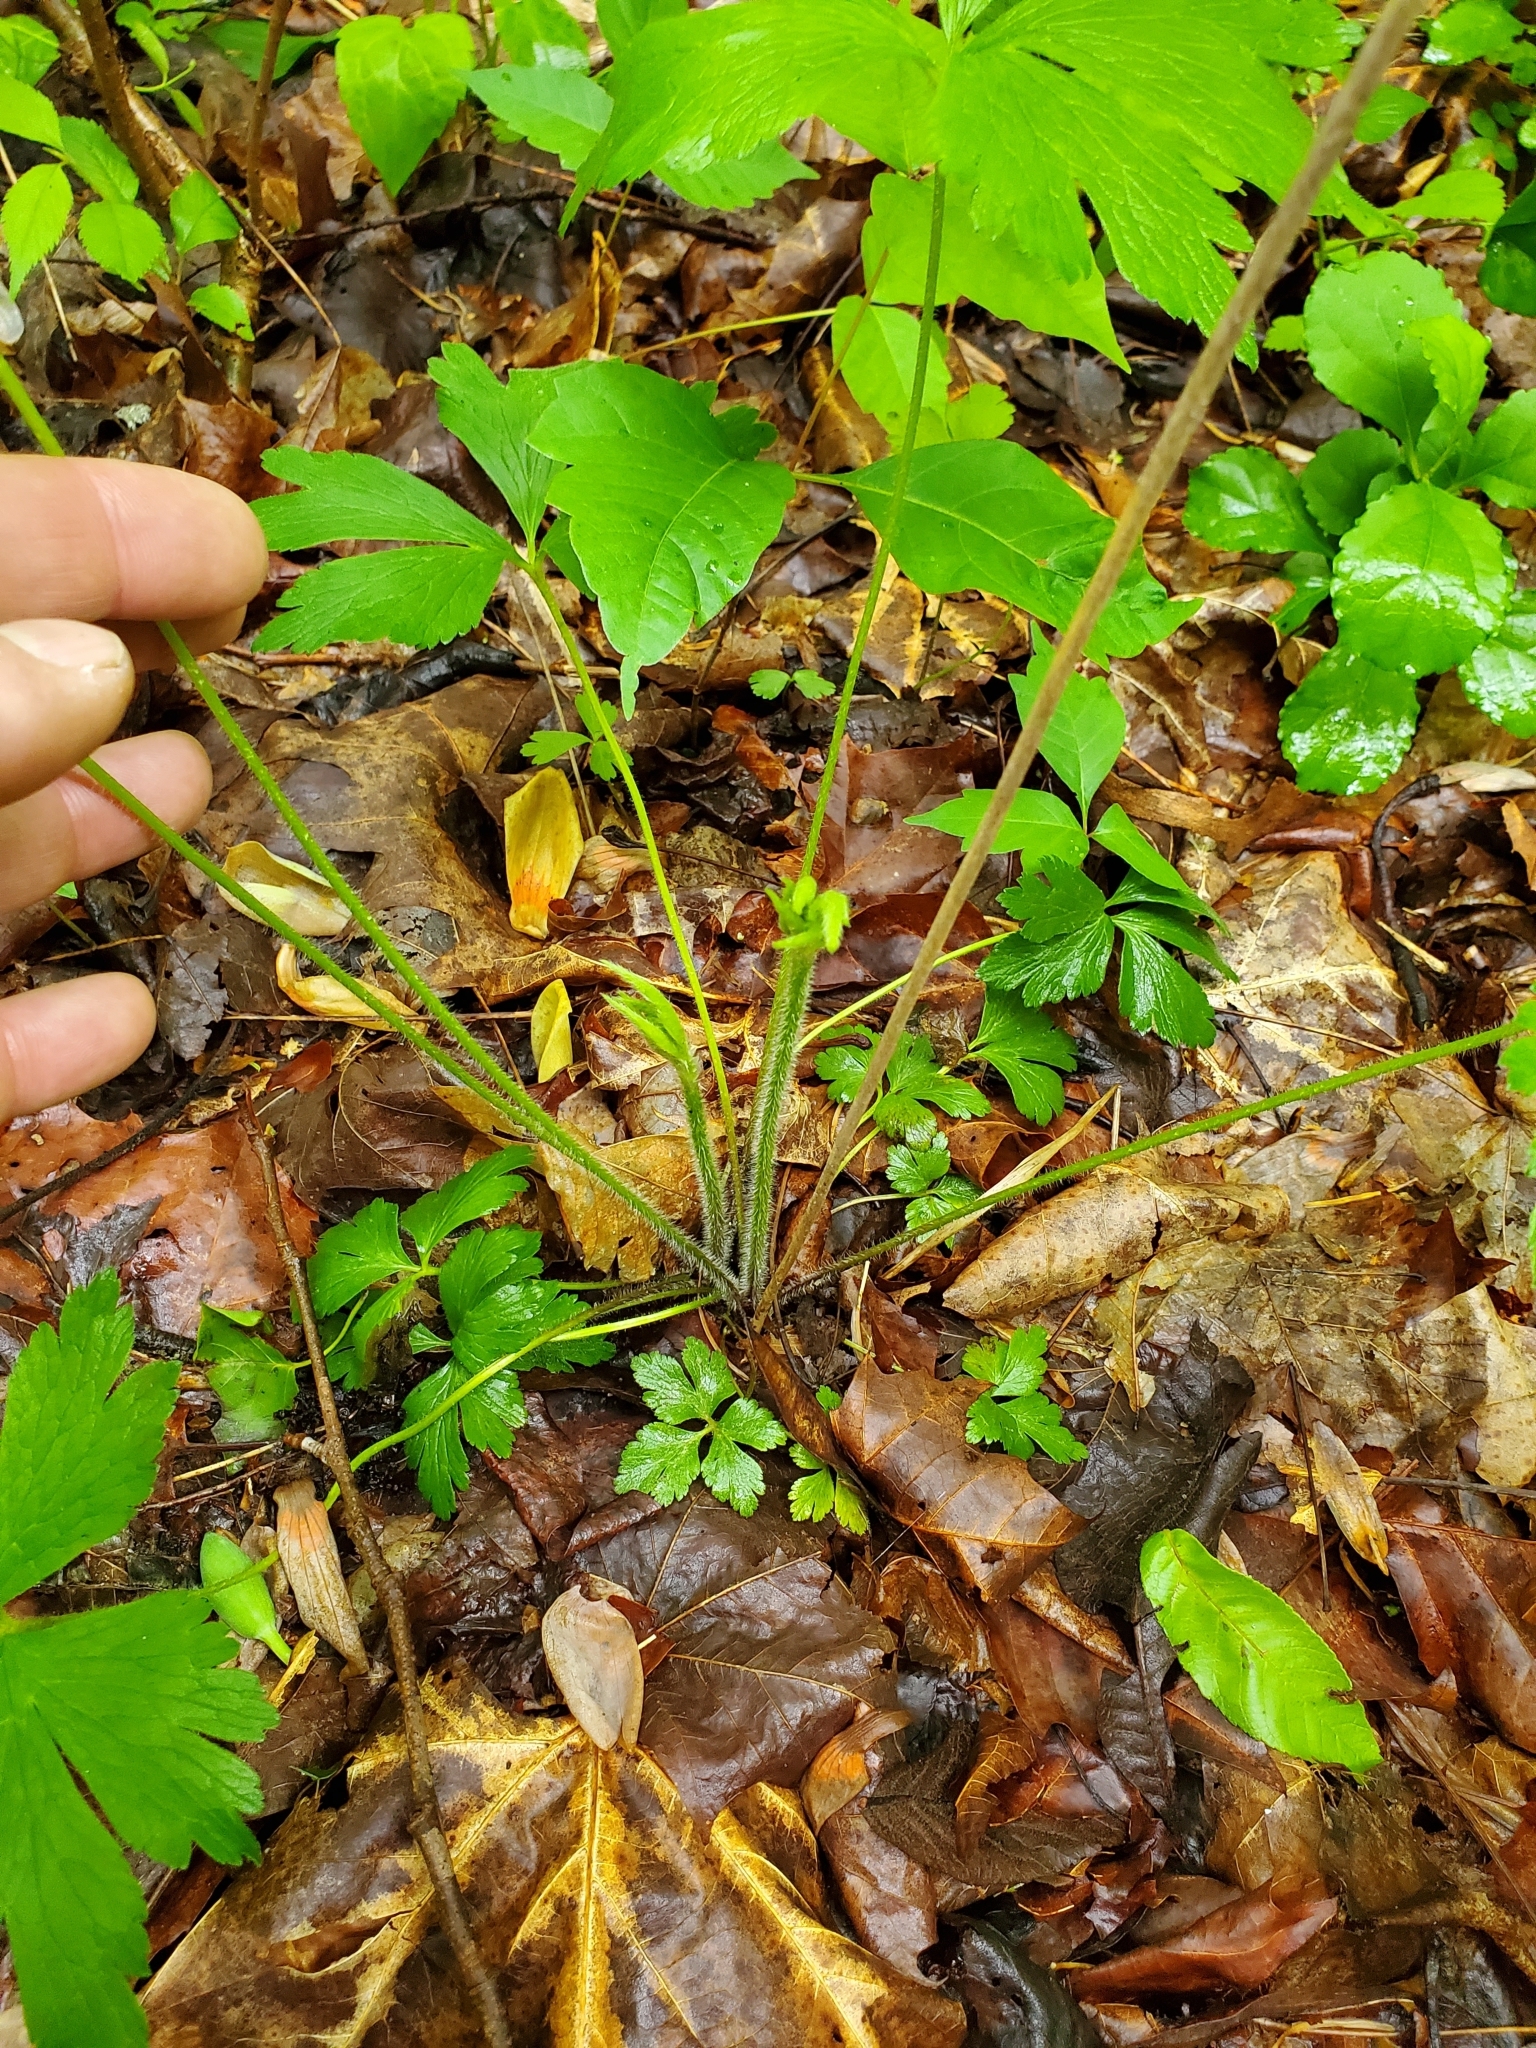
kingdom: Plantae
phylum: Tracheophyta
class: Magnoliopsida
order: Ranunculales
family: Ranunculaceae
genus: Anemone
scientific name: Anemone virginiana
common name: Tall anemone
